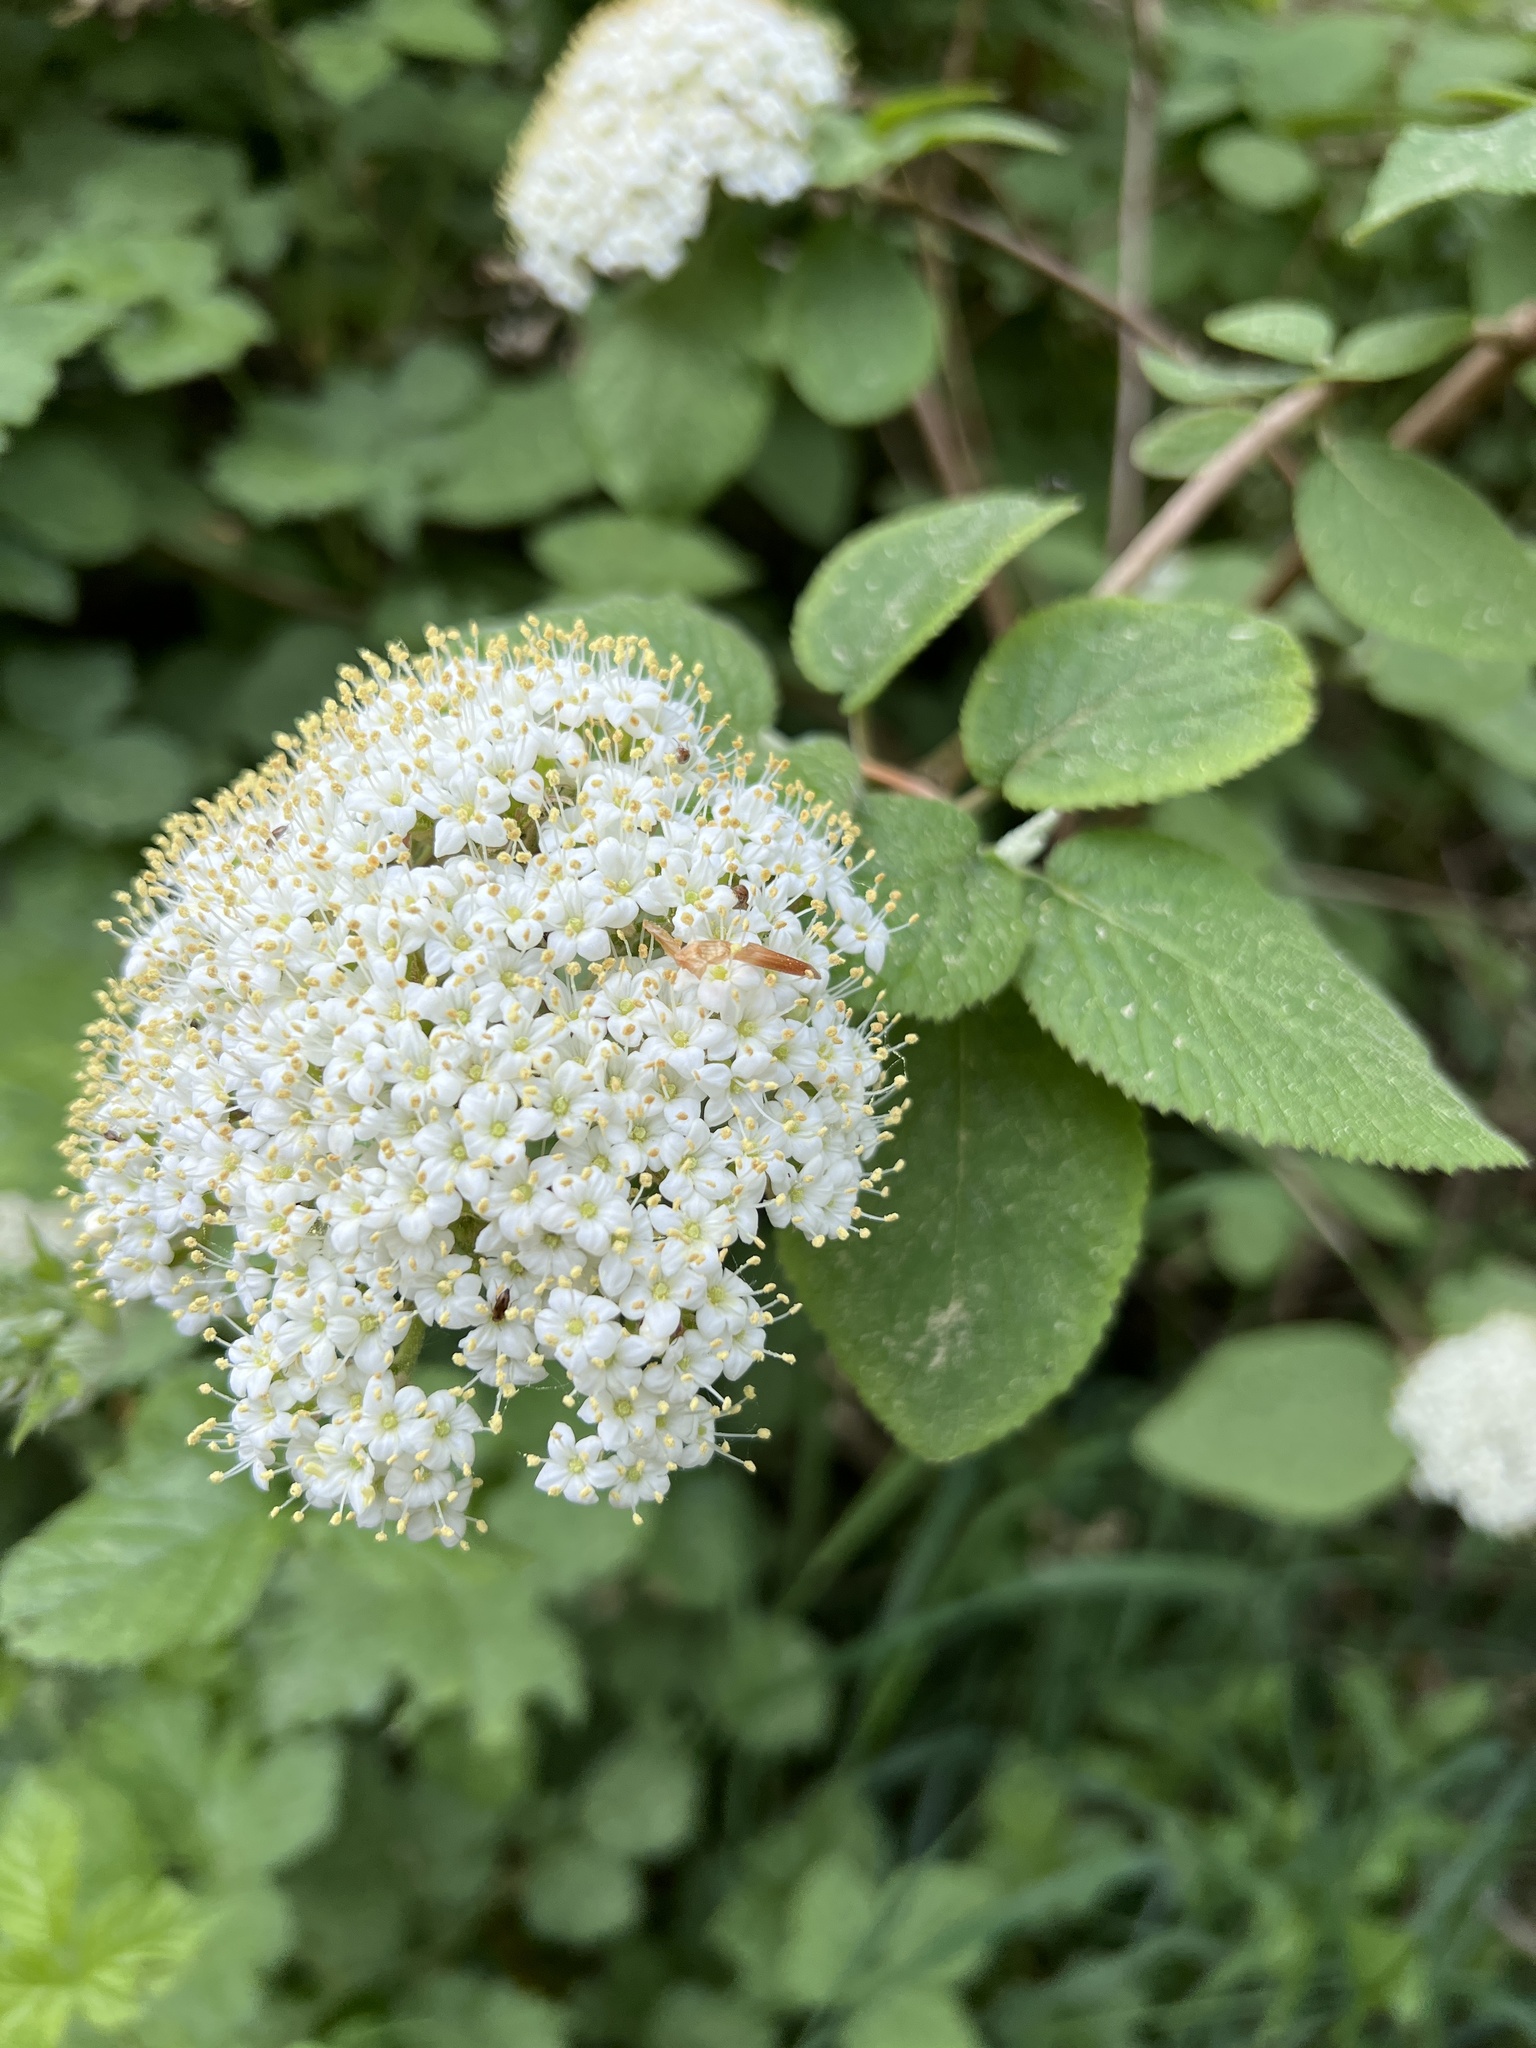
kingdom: Plantae
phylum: Tracheophyta
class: Magnoliopsida
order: Dipsacales
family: Viburnaceae
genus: Viburnum
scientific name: Viburnum lantana
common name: Wayfaring tree
